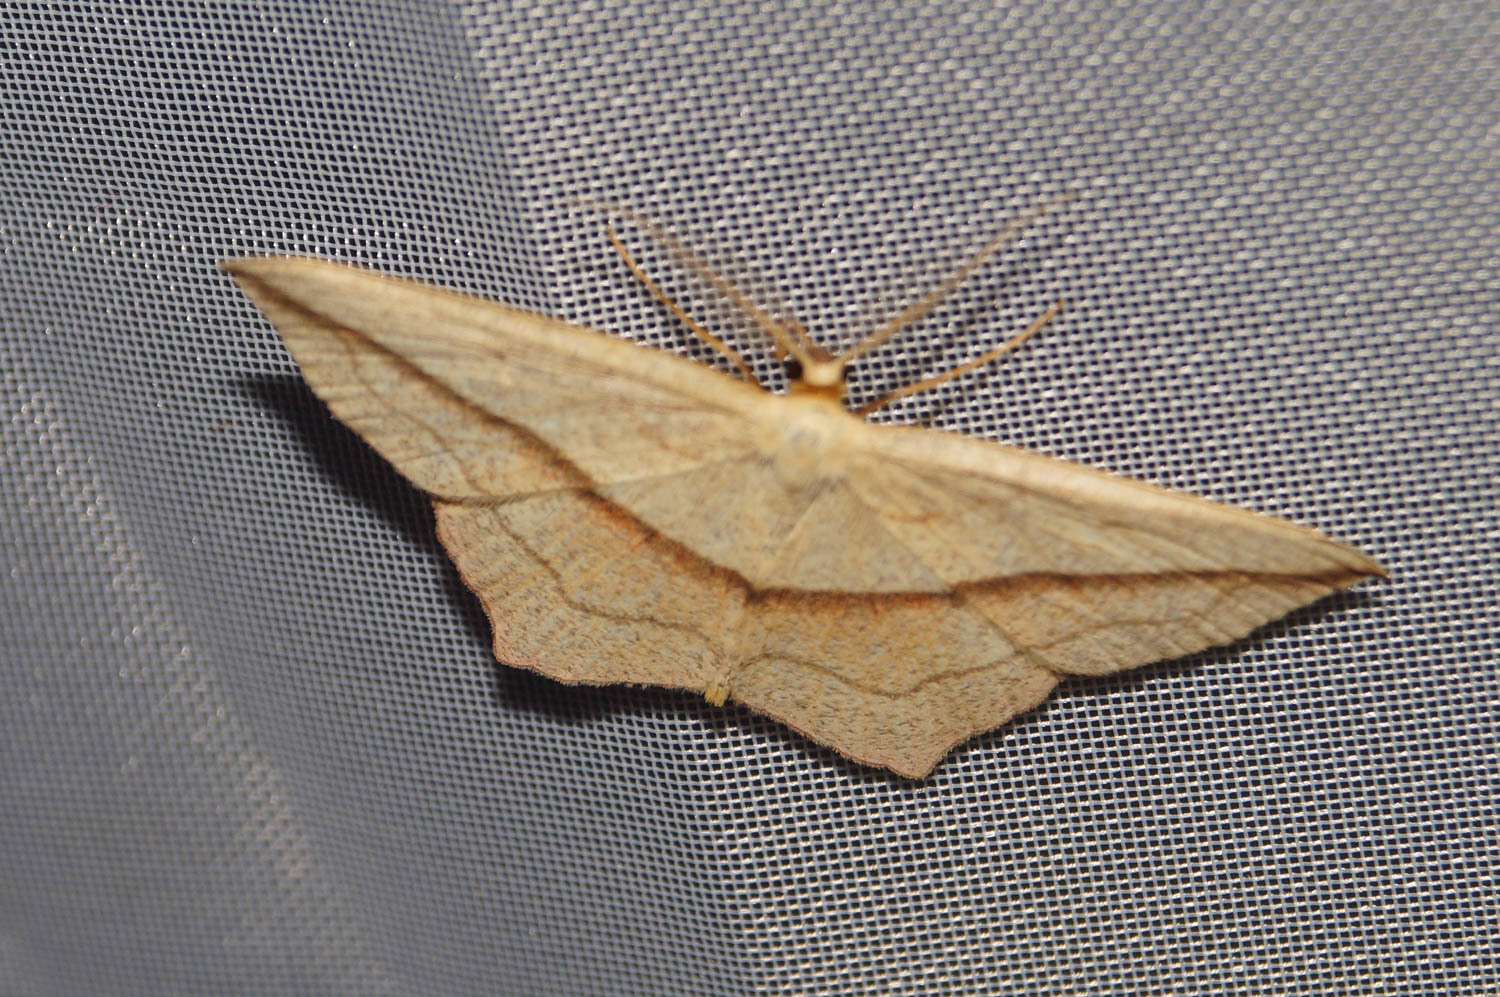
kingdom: Animalia
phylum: Arthropoda
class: Insecta
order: Lepidoptera
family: Geometridae
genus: Timandra
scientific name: Timandra comae
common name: Blood-vein
